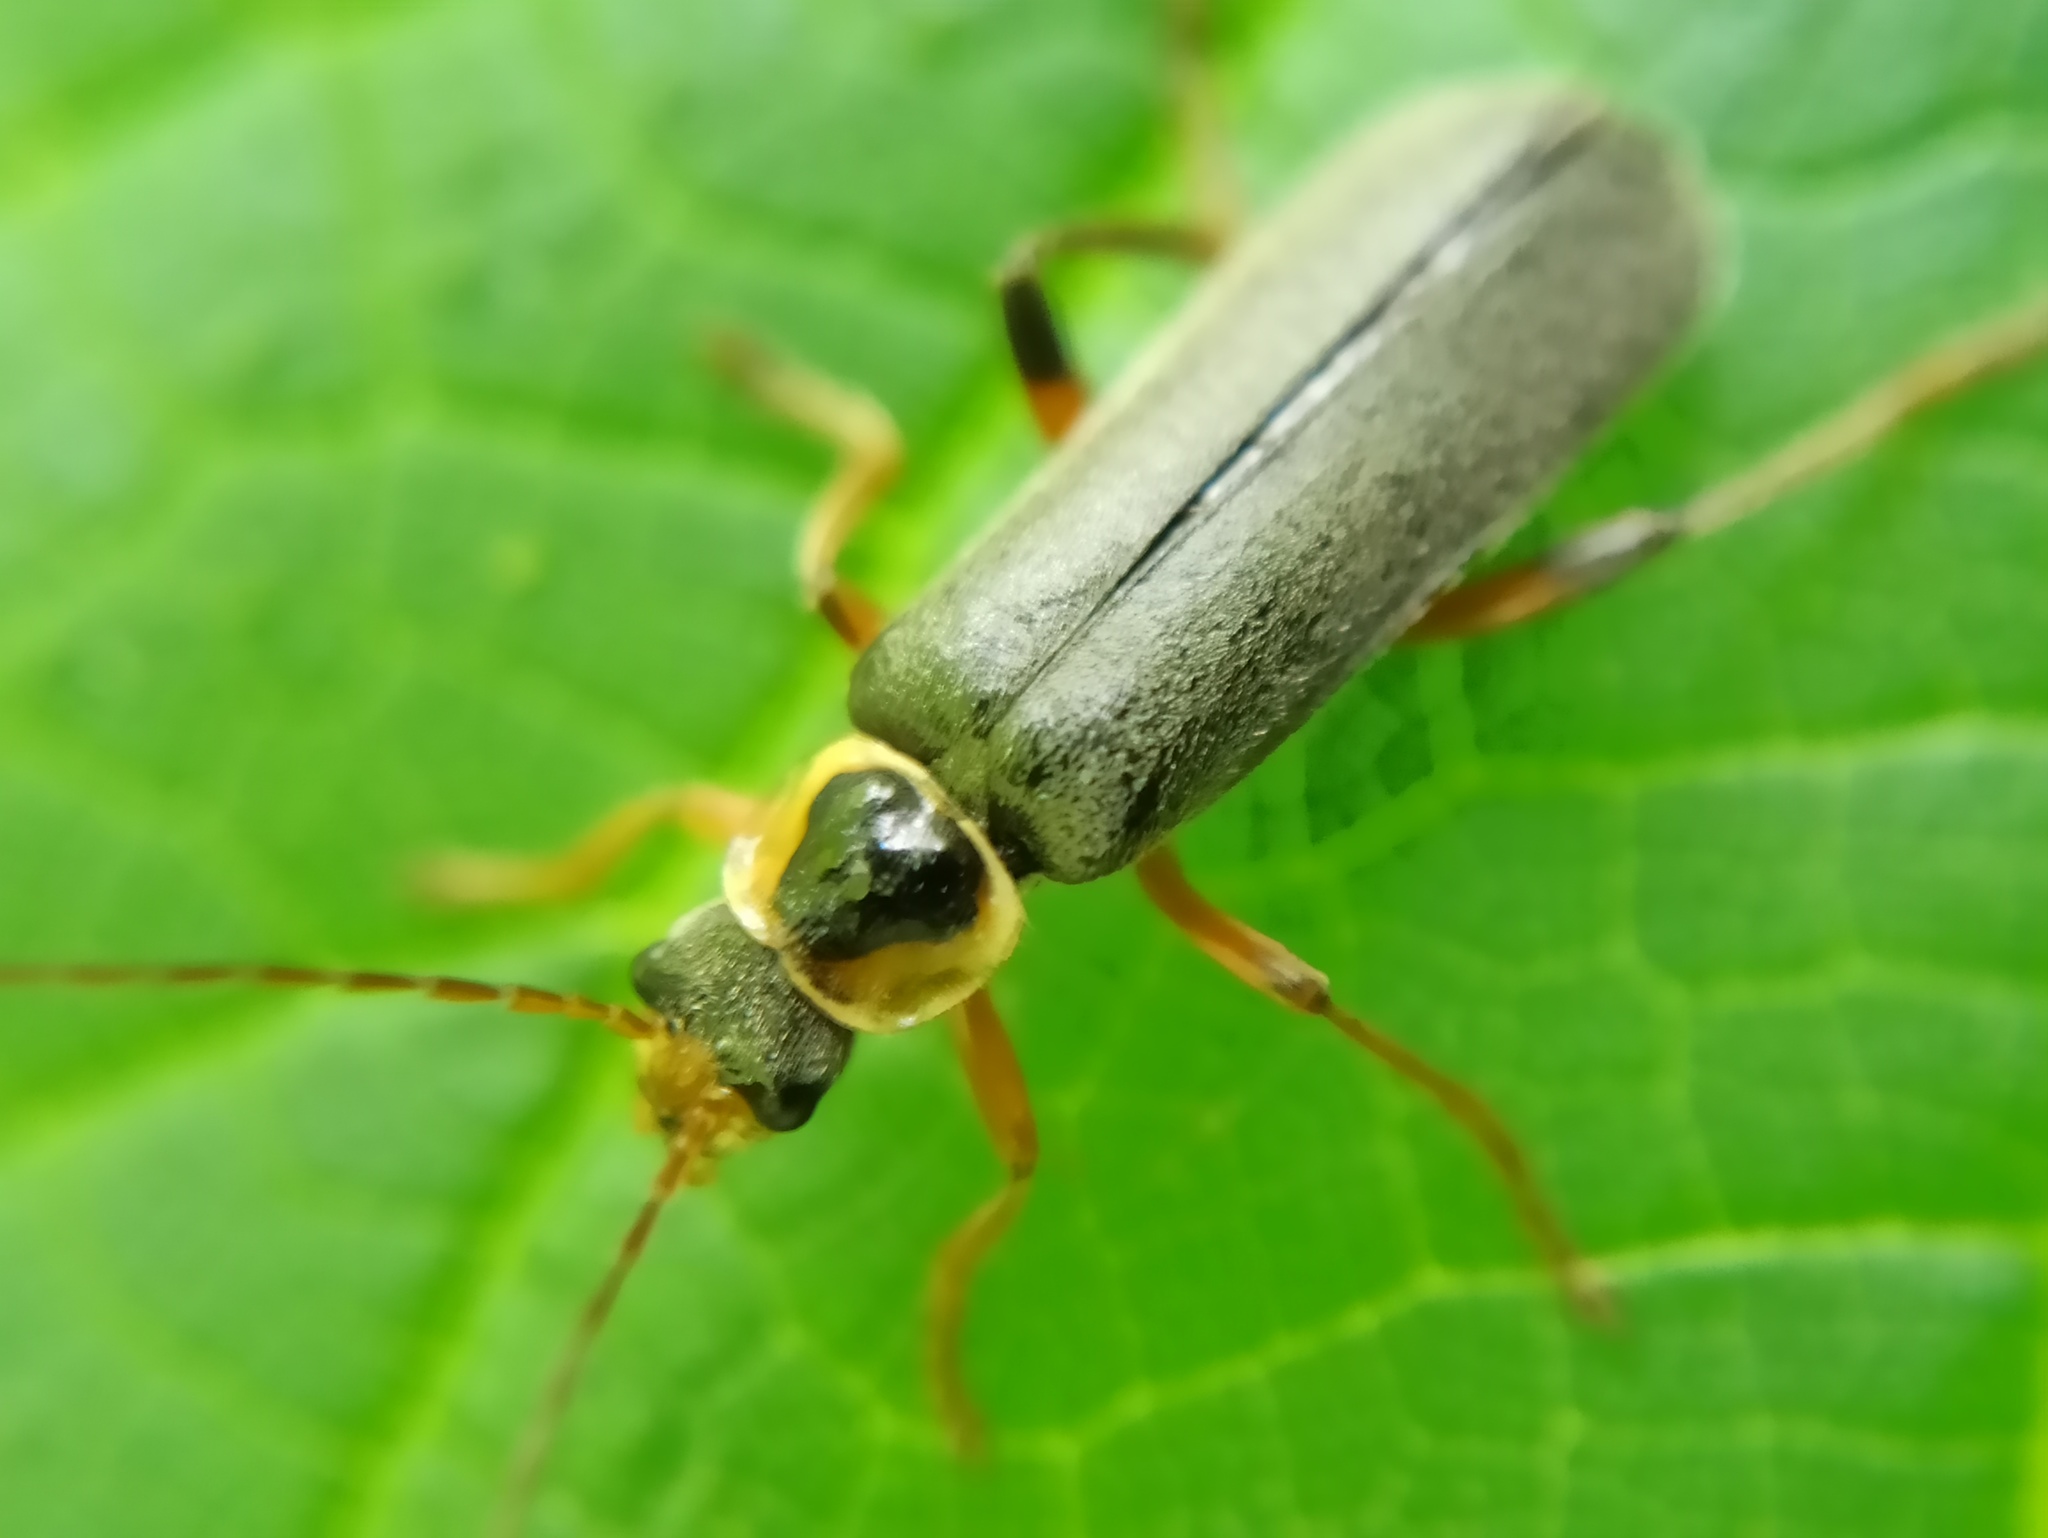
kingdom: Animalia
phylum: Arthropoda
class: Insecta
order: Coleoptera
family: Cantharidae
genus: Cantharis
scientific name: Cantharis nigricans
